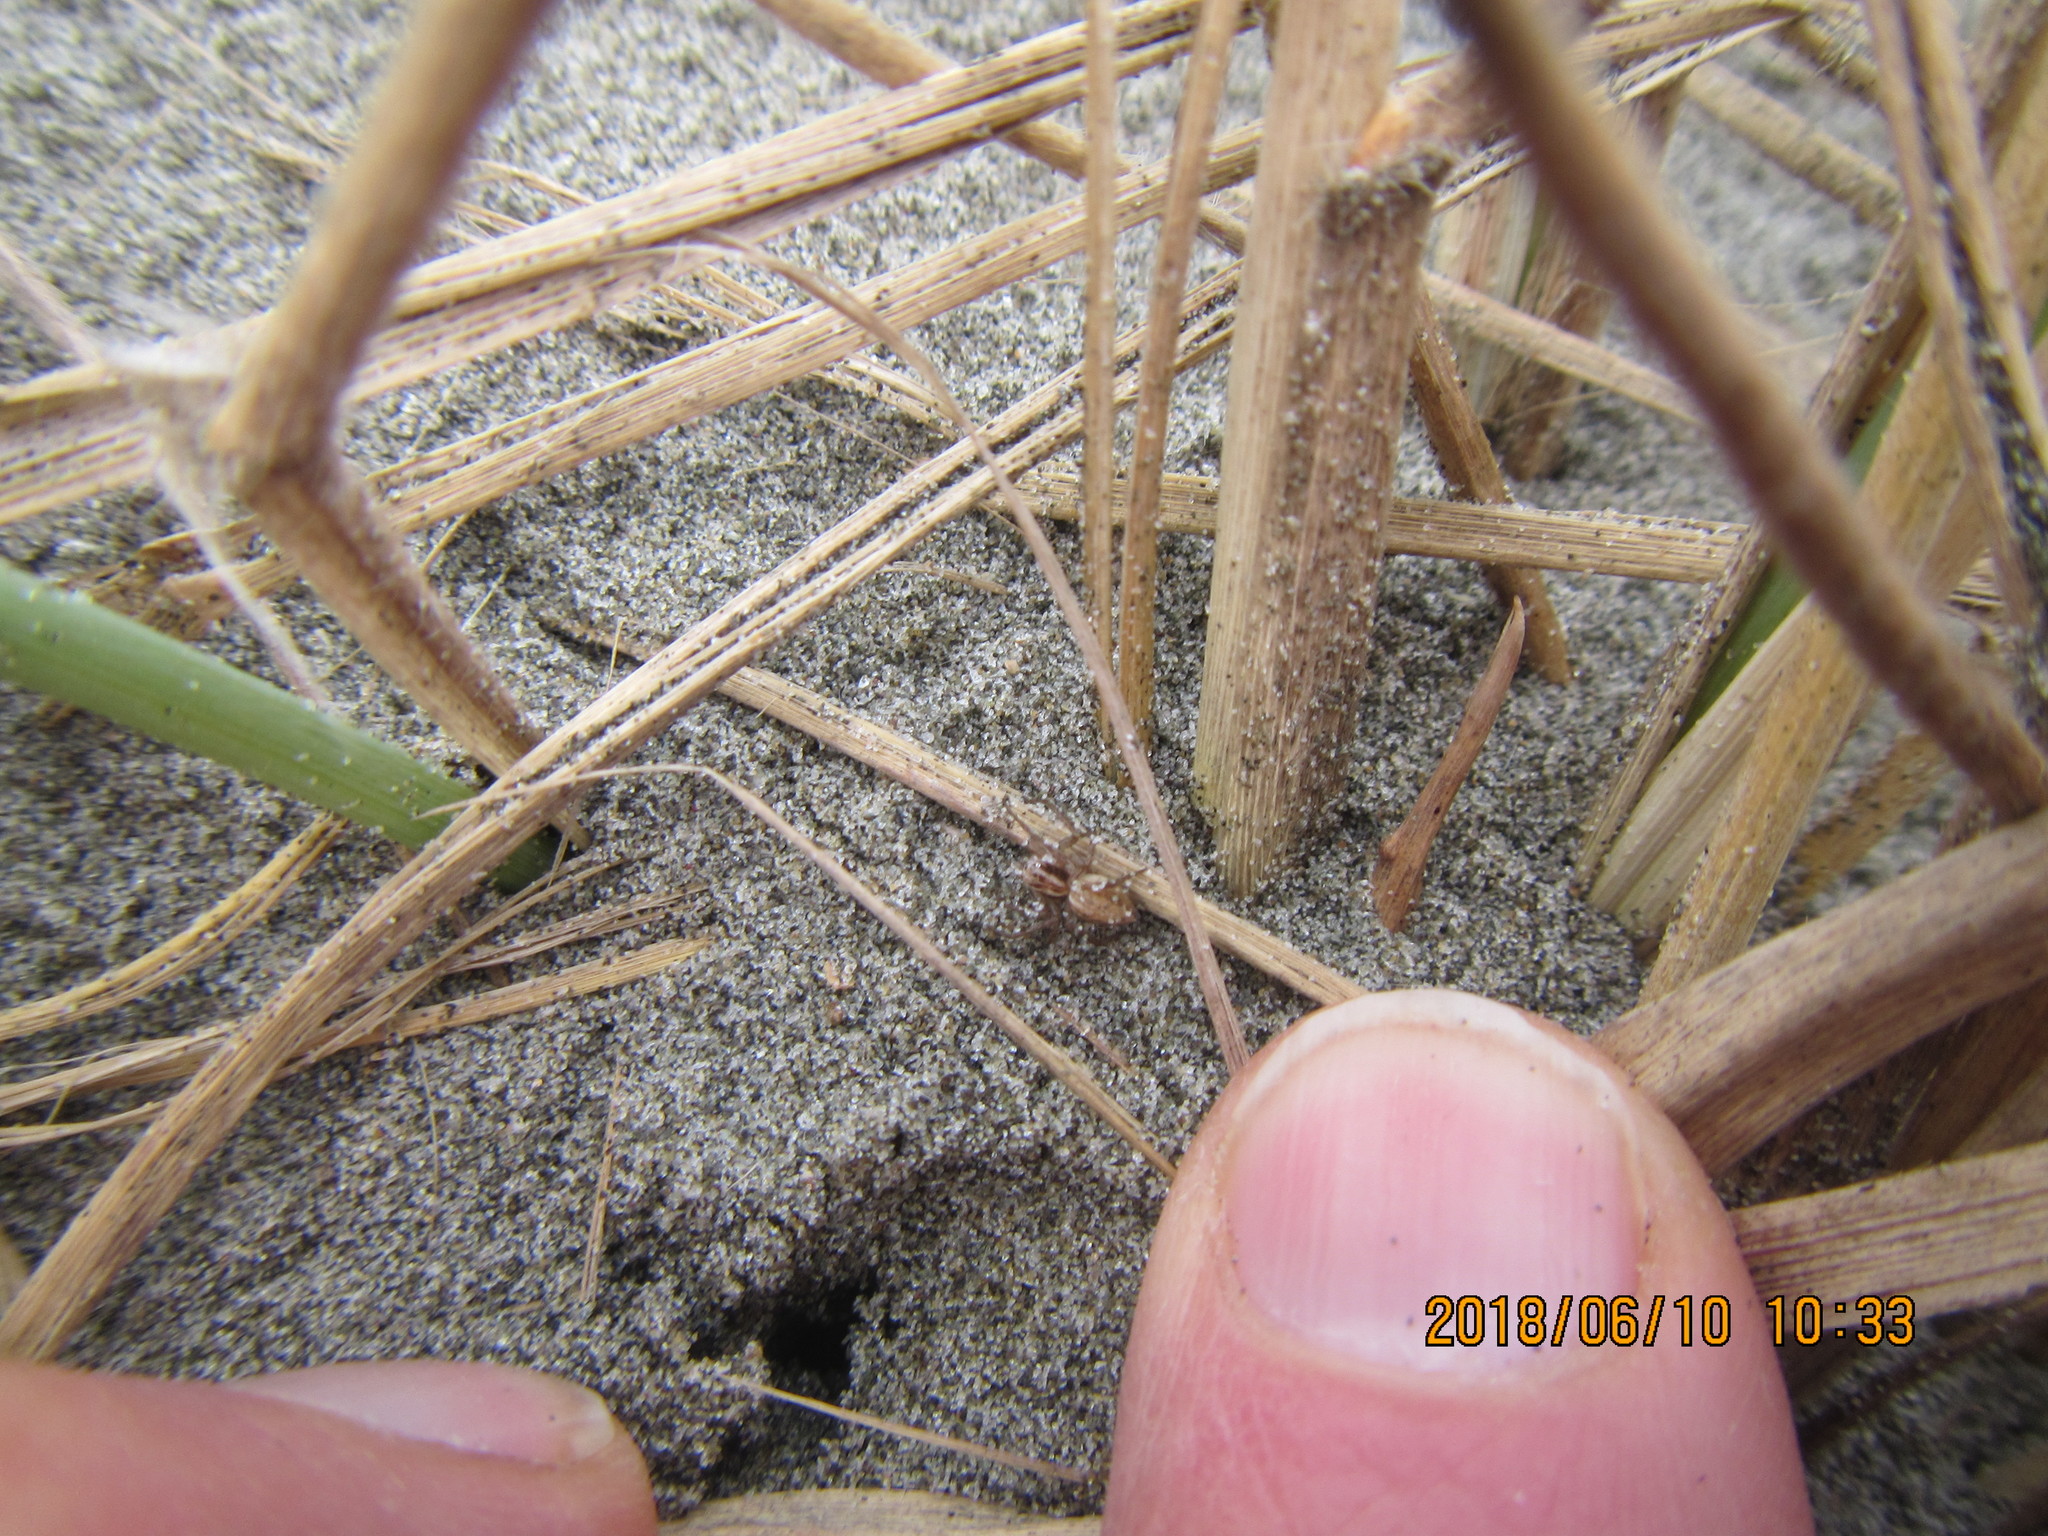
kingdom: Animalia
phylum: Arthropoda
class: Arachnida
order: Araneae
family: Oxyopidae
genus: Oxyopes
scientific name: Oxyopes gracilipes
